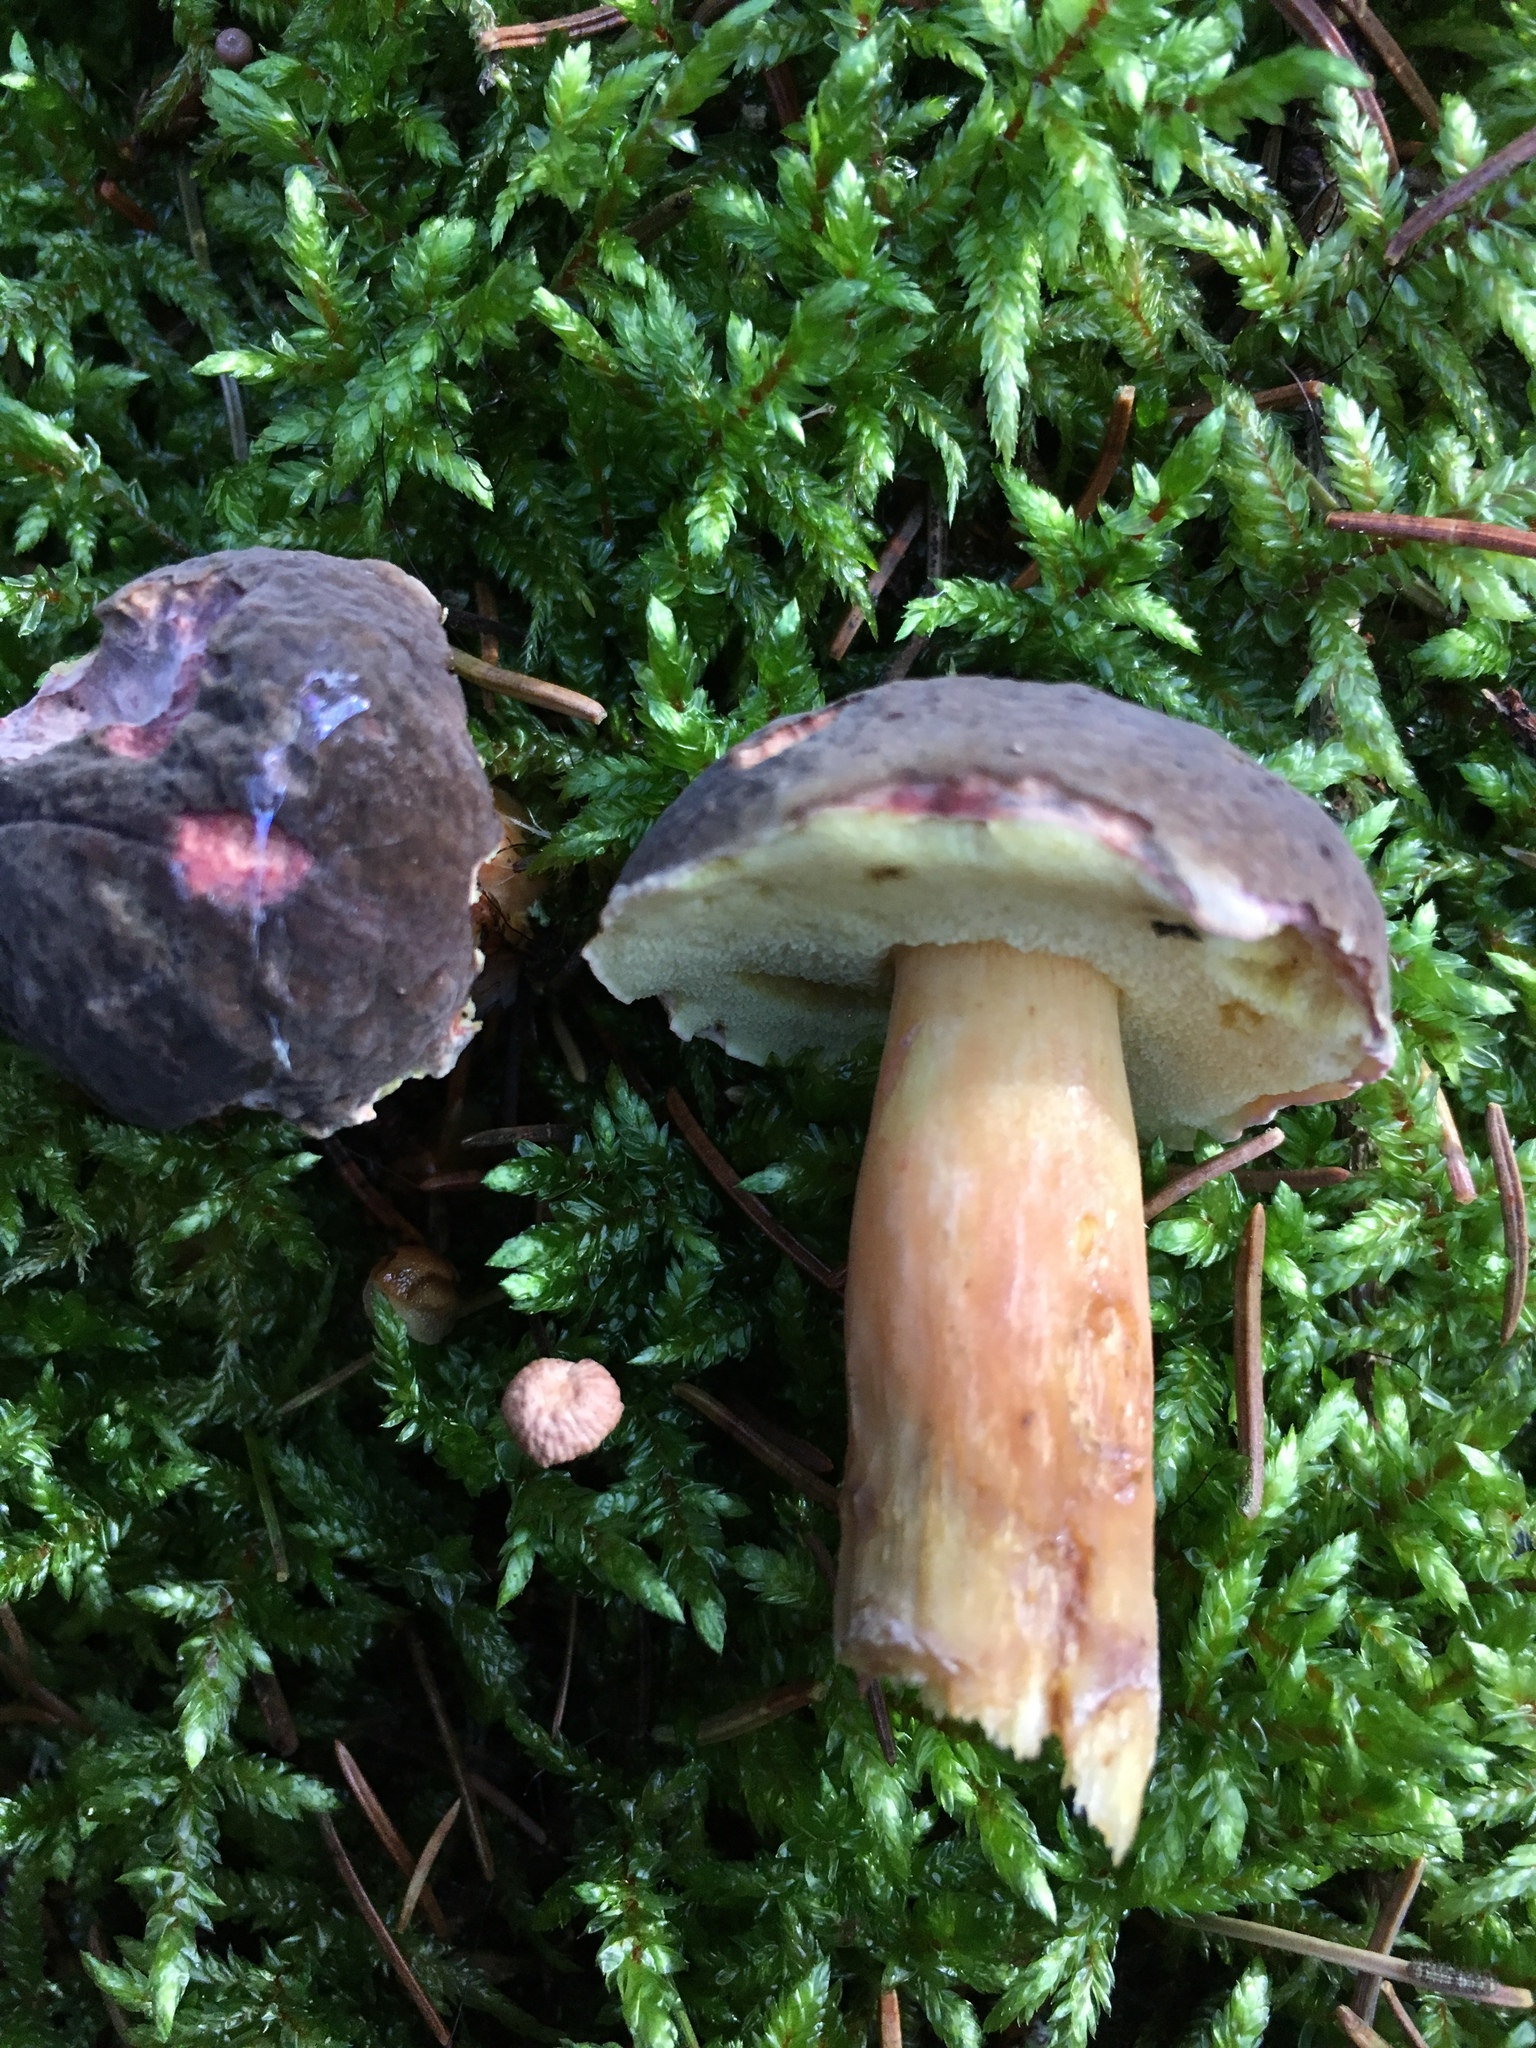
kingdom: Fungi
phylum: Basidiomycota
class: Agaricomycetes
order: Boletales
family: Boletaceae
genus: Xerocomellus
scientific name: Xerocomellus pruinatus
